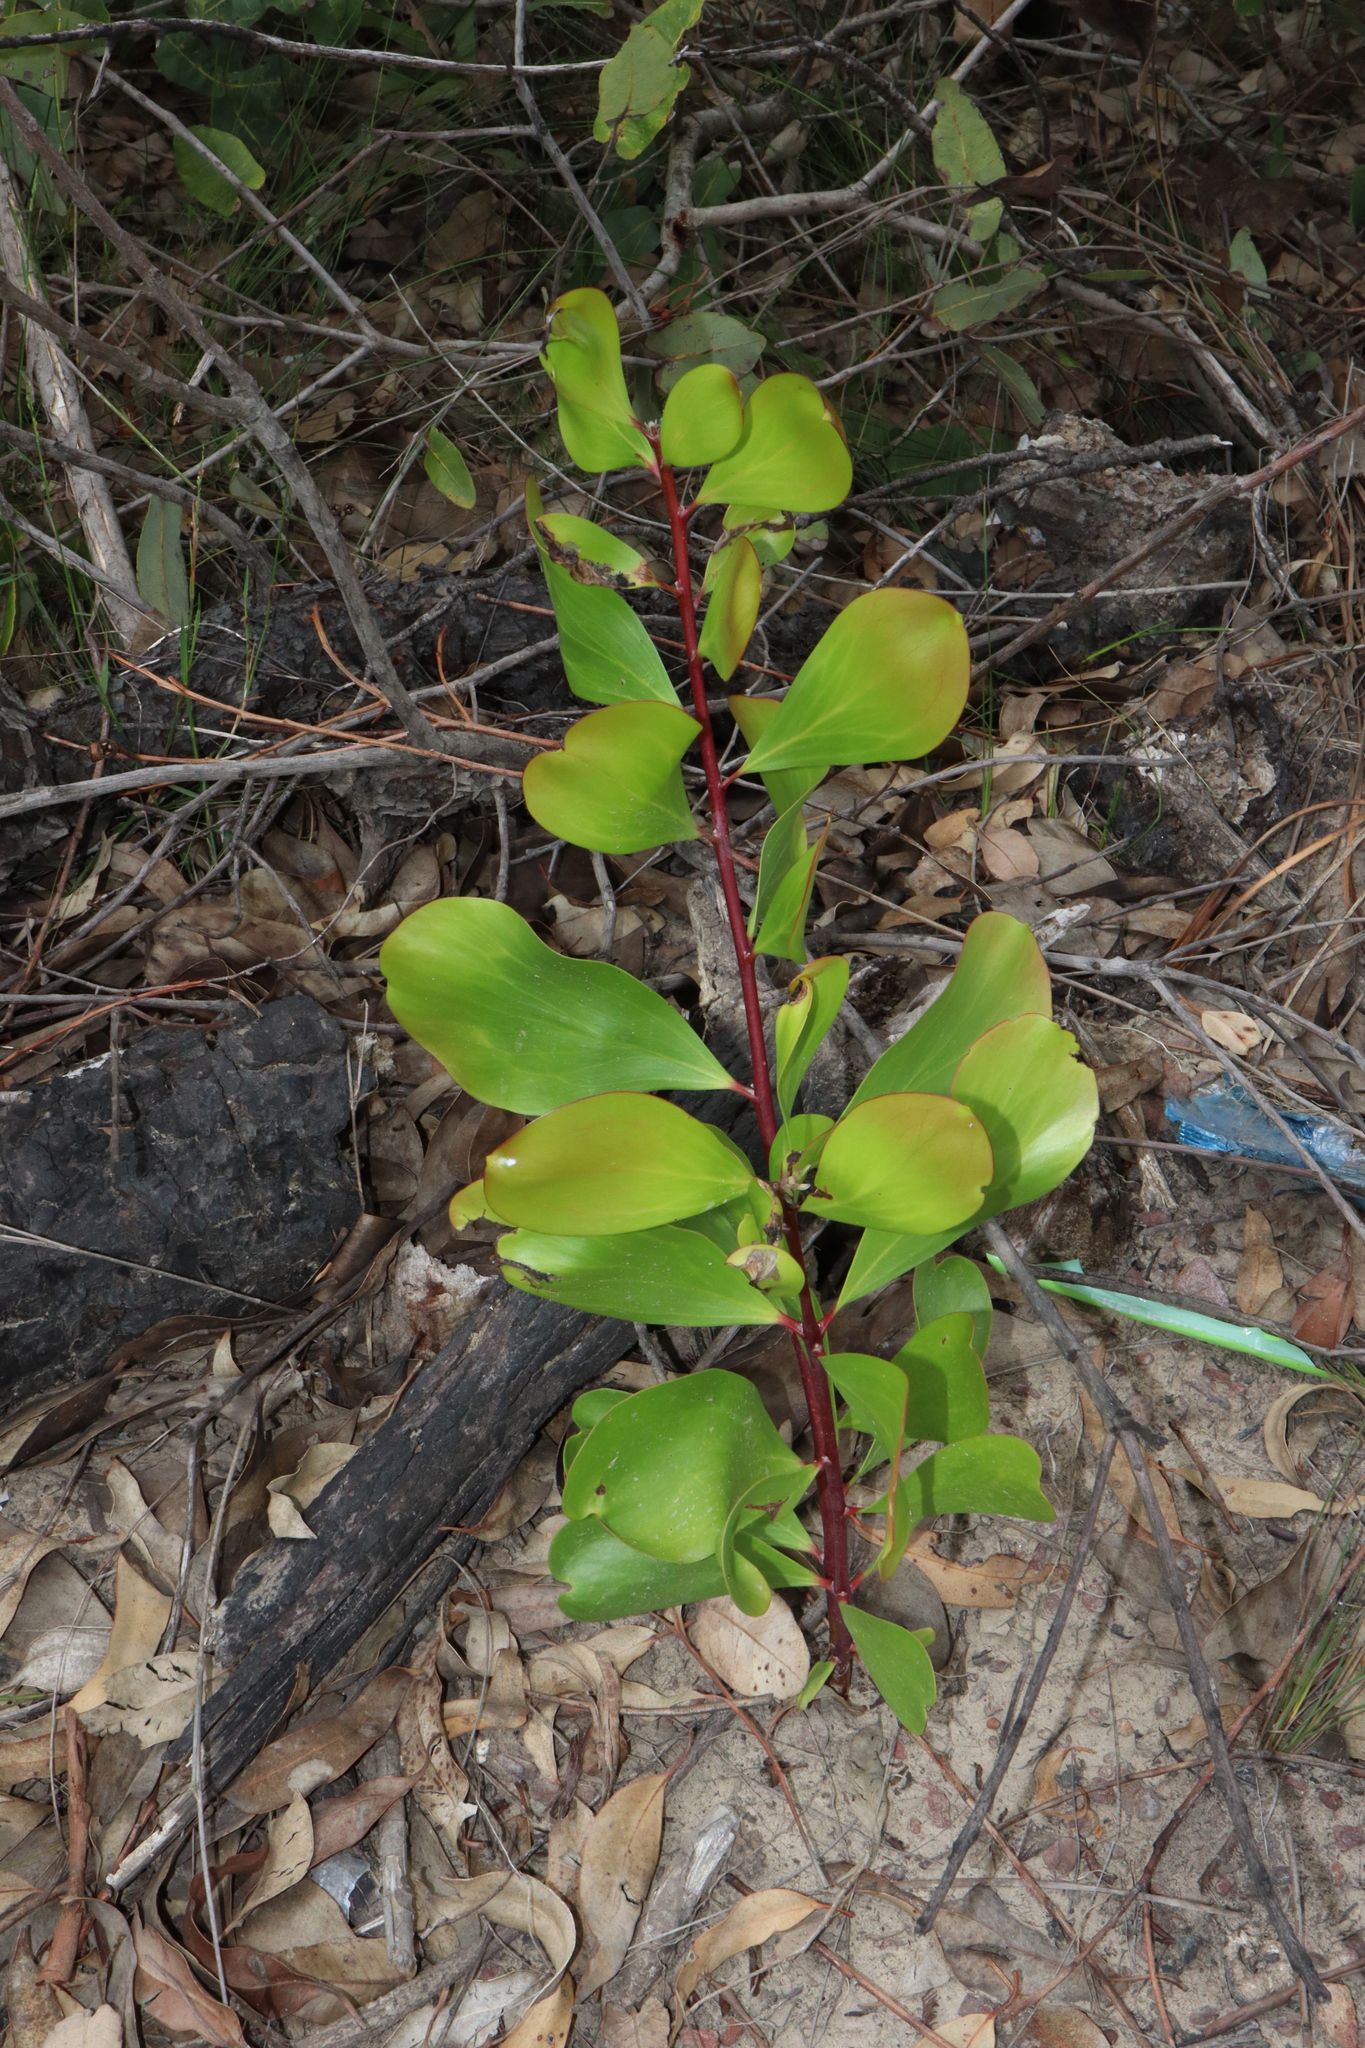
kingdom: Plantae
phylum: Tracheophyta
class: Magnoliopsida
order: Proteales
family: Proteaceae
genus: Persoonia
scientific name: Persoonia levis
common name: Smooth geebung
